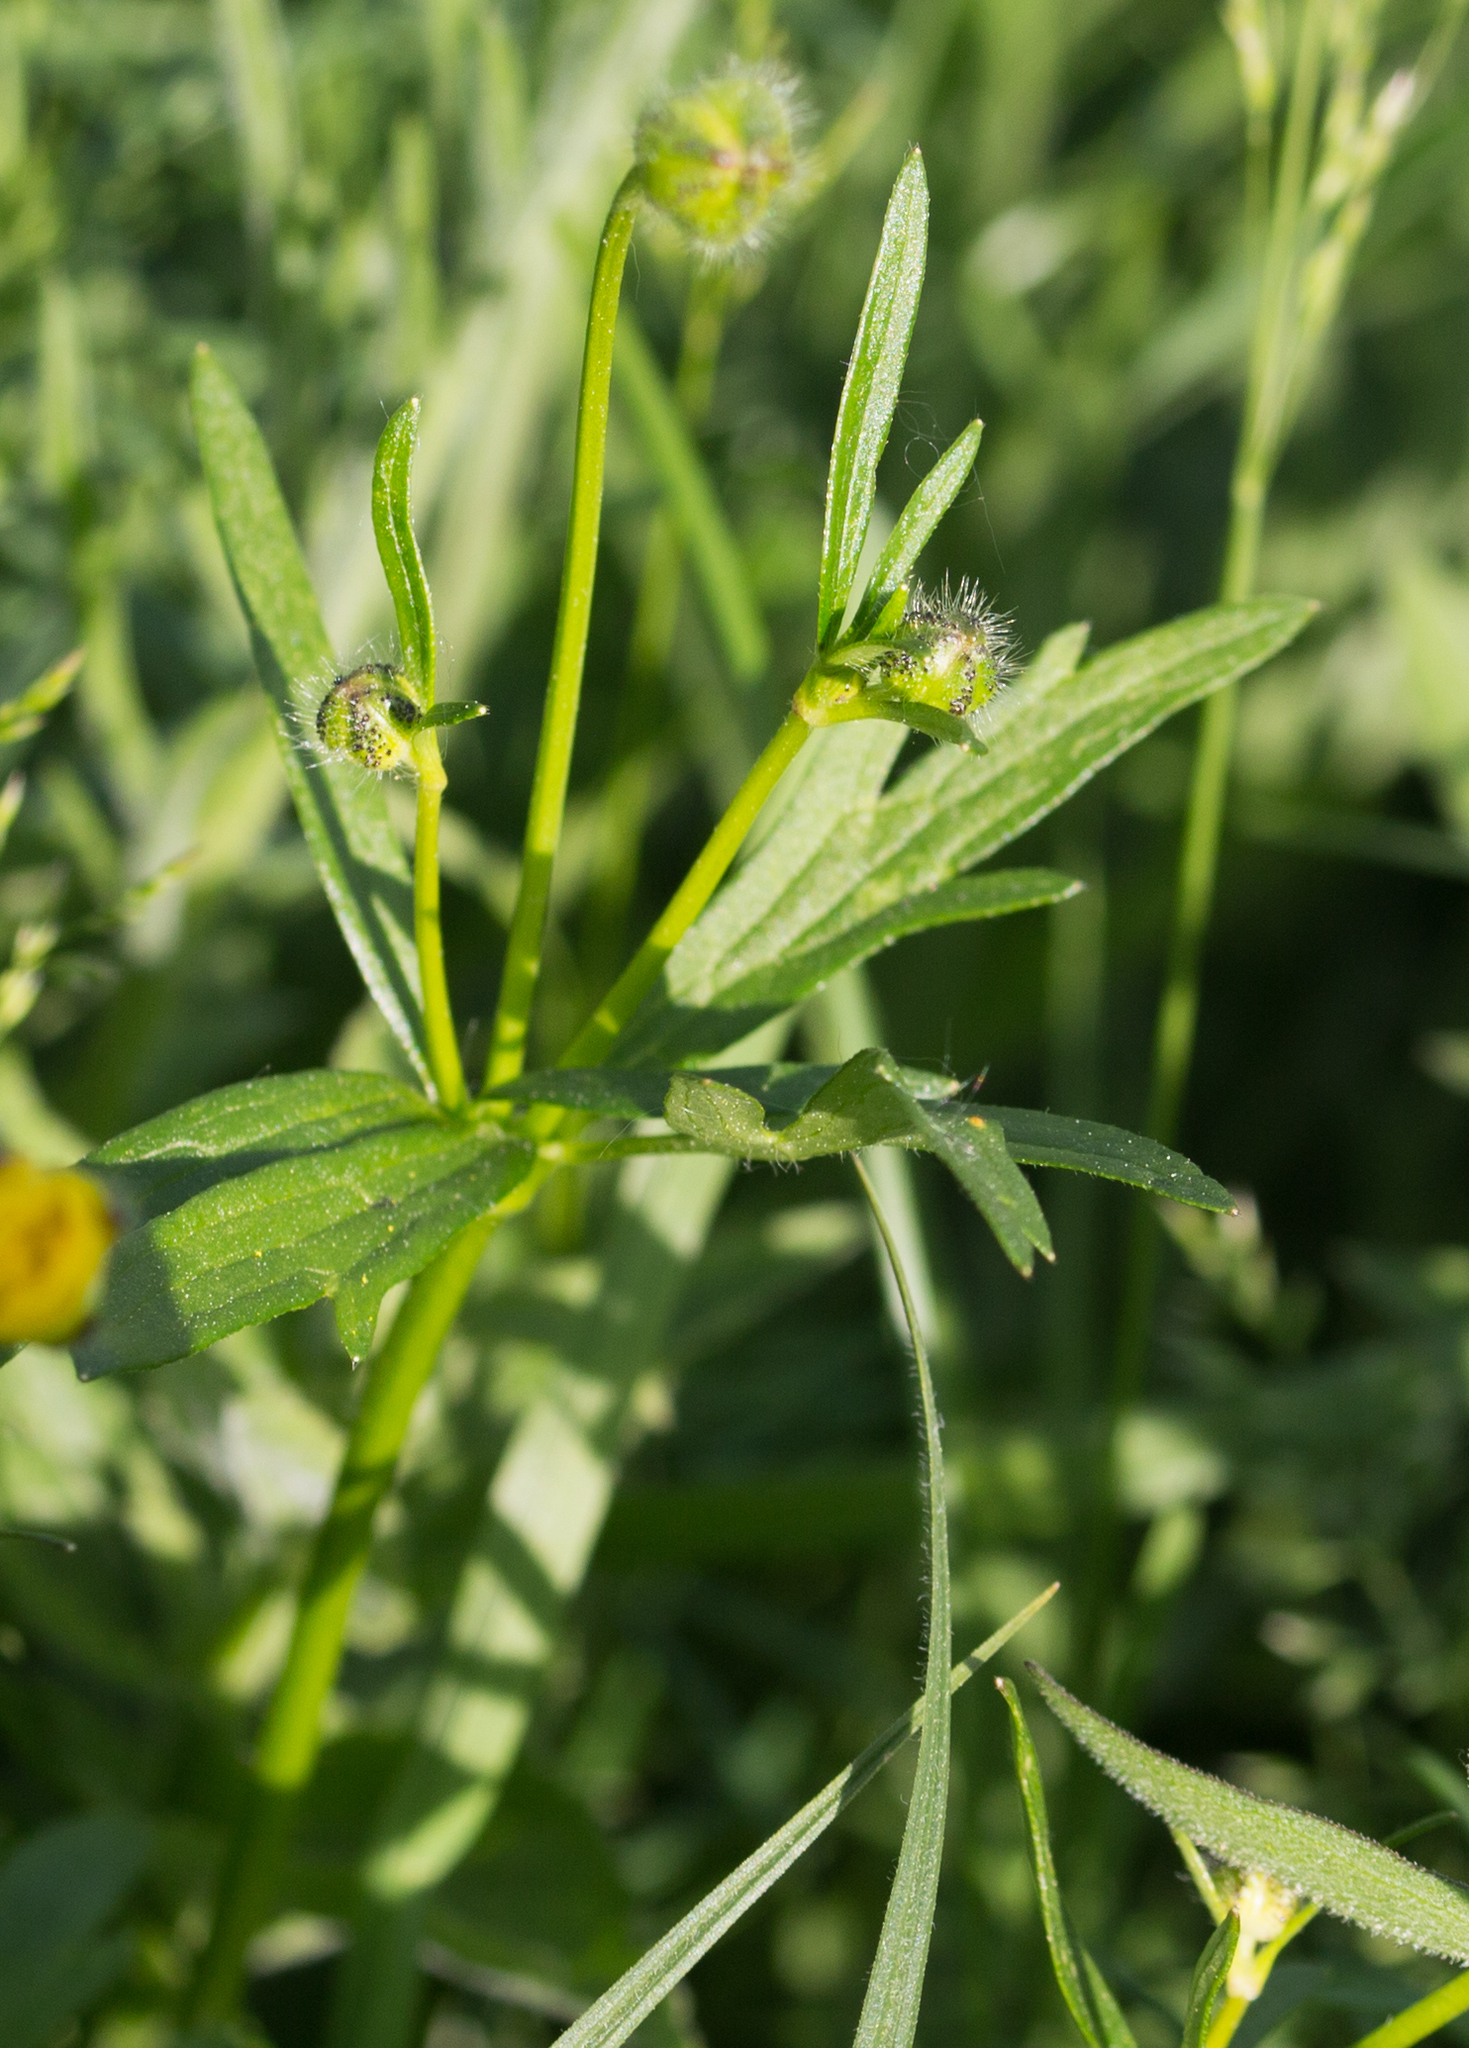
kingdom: Plantae
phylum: Tracheophyta
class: Magnoliopsida
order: Ranunculales
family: Ranunculaceae
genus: Ranunculus
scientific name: Ranunculus polyanthemos
